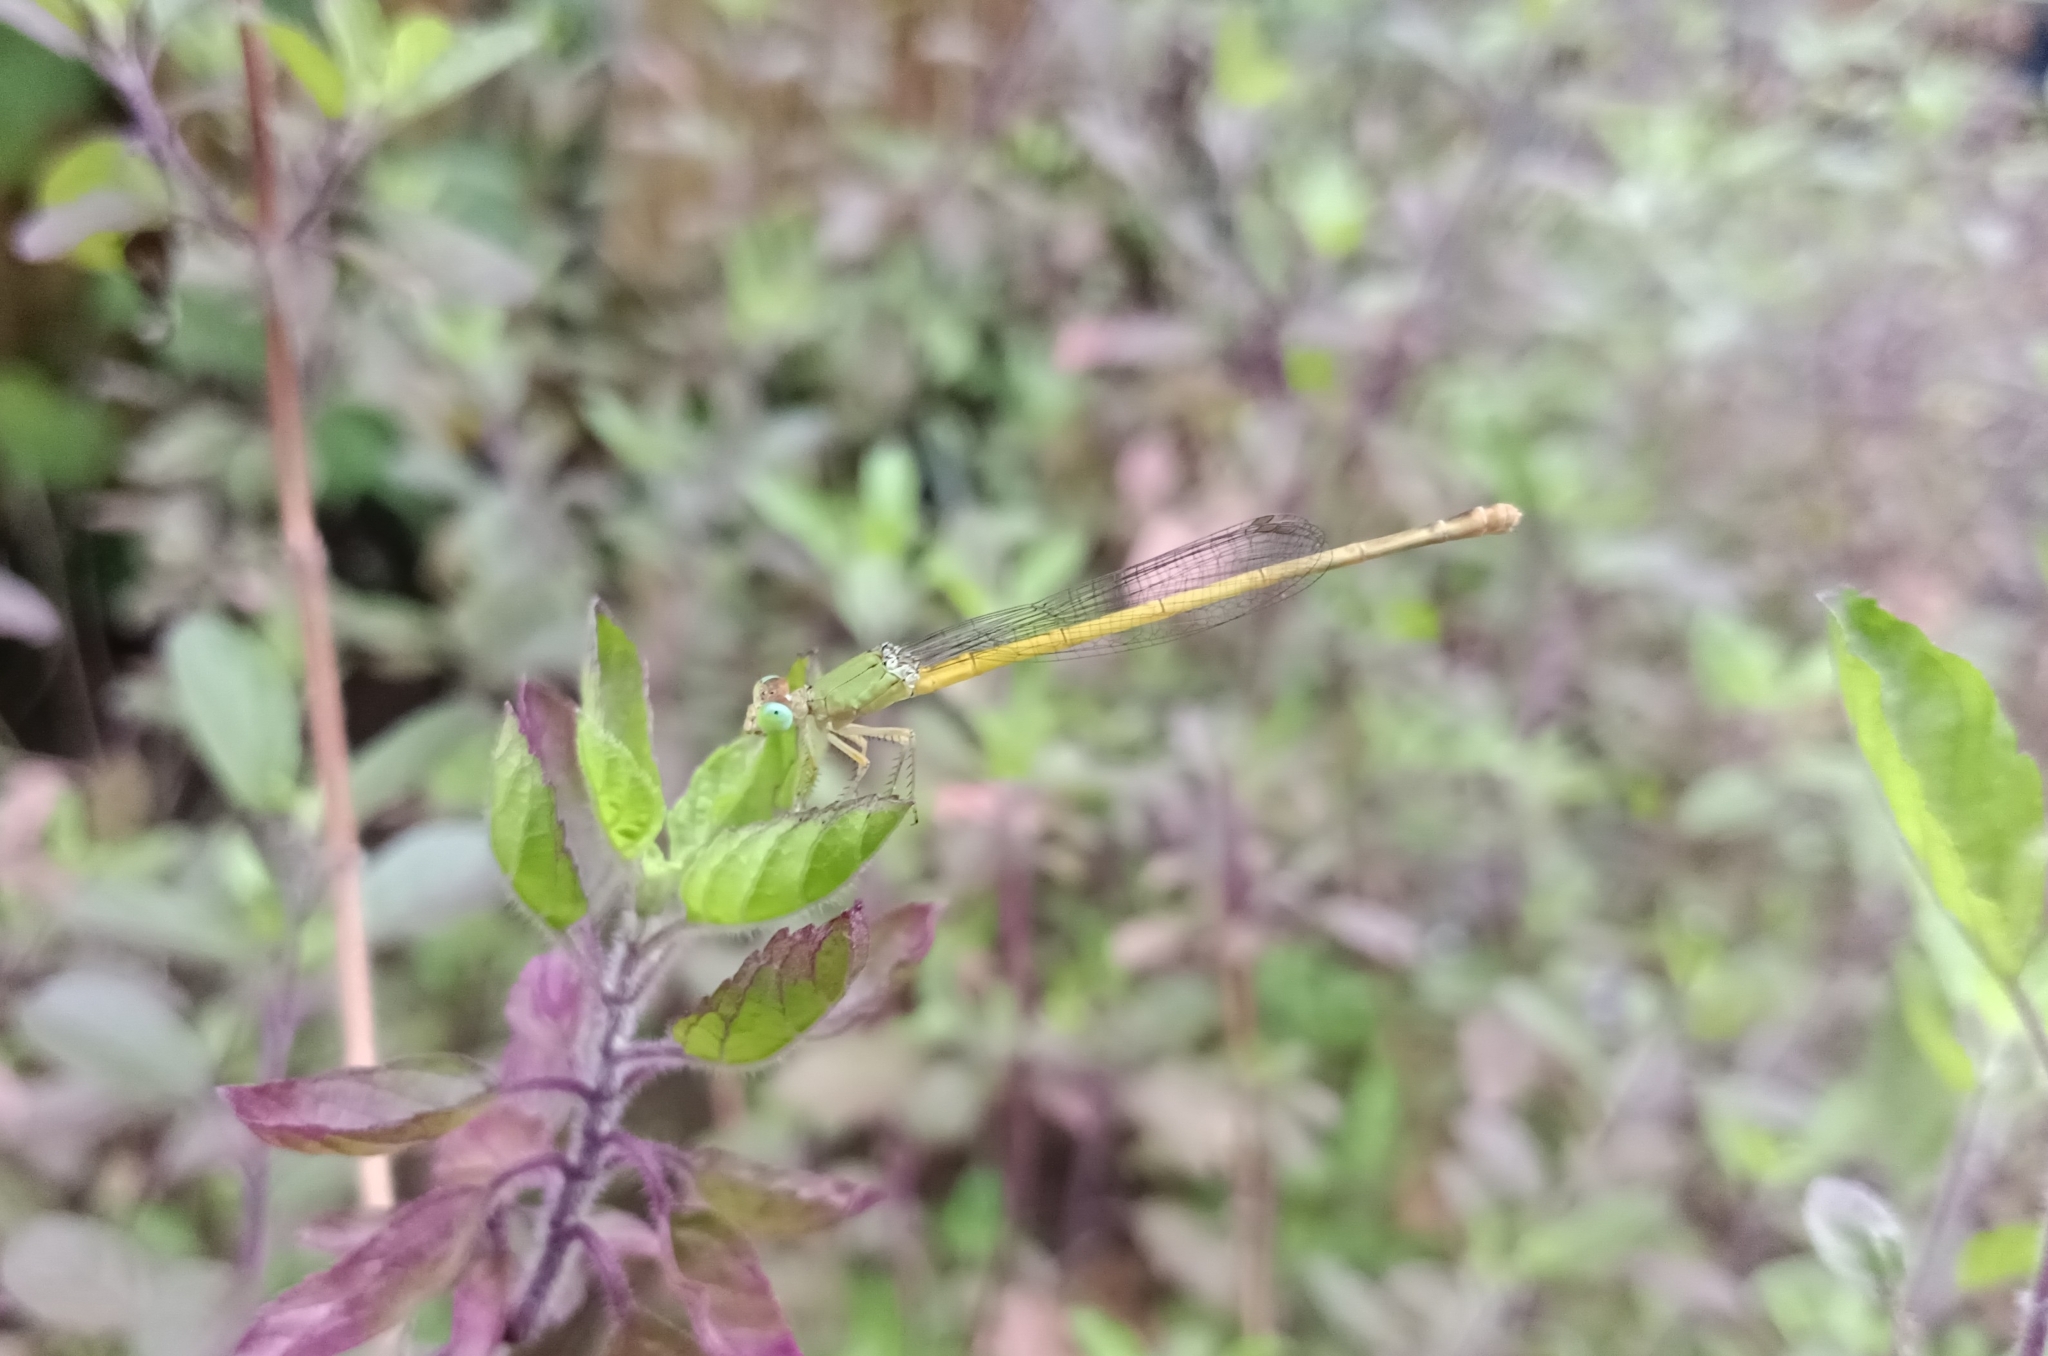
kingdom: Animalia
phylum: Arthropoda
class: Insecta
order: Odonata
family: Coenagrionidae
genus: Ceriagrion
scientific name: Ceriagrion coromandelianum
